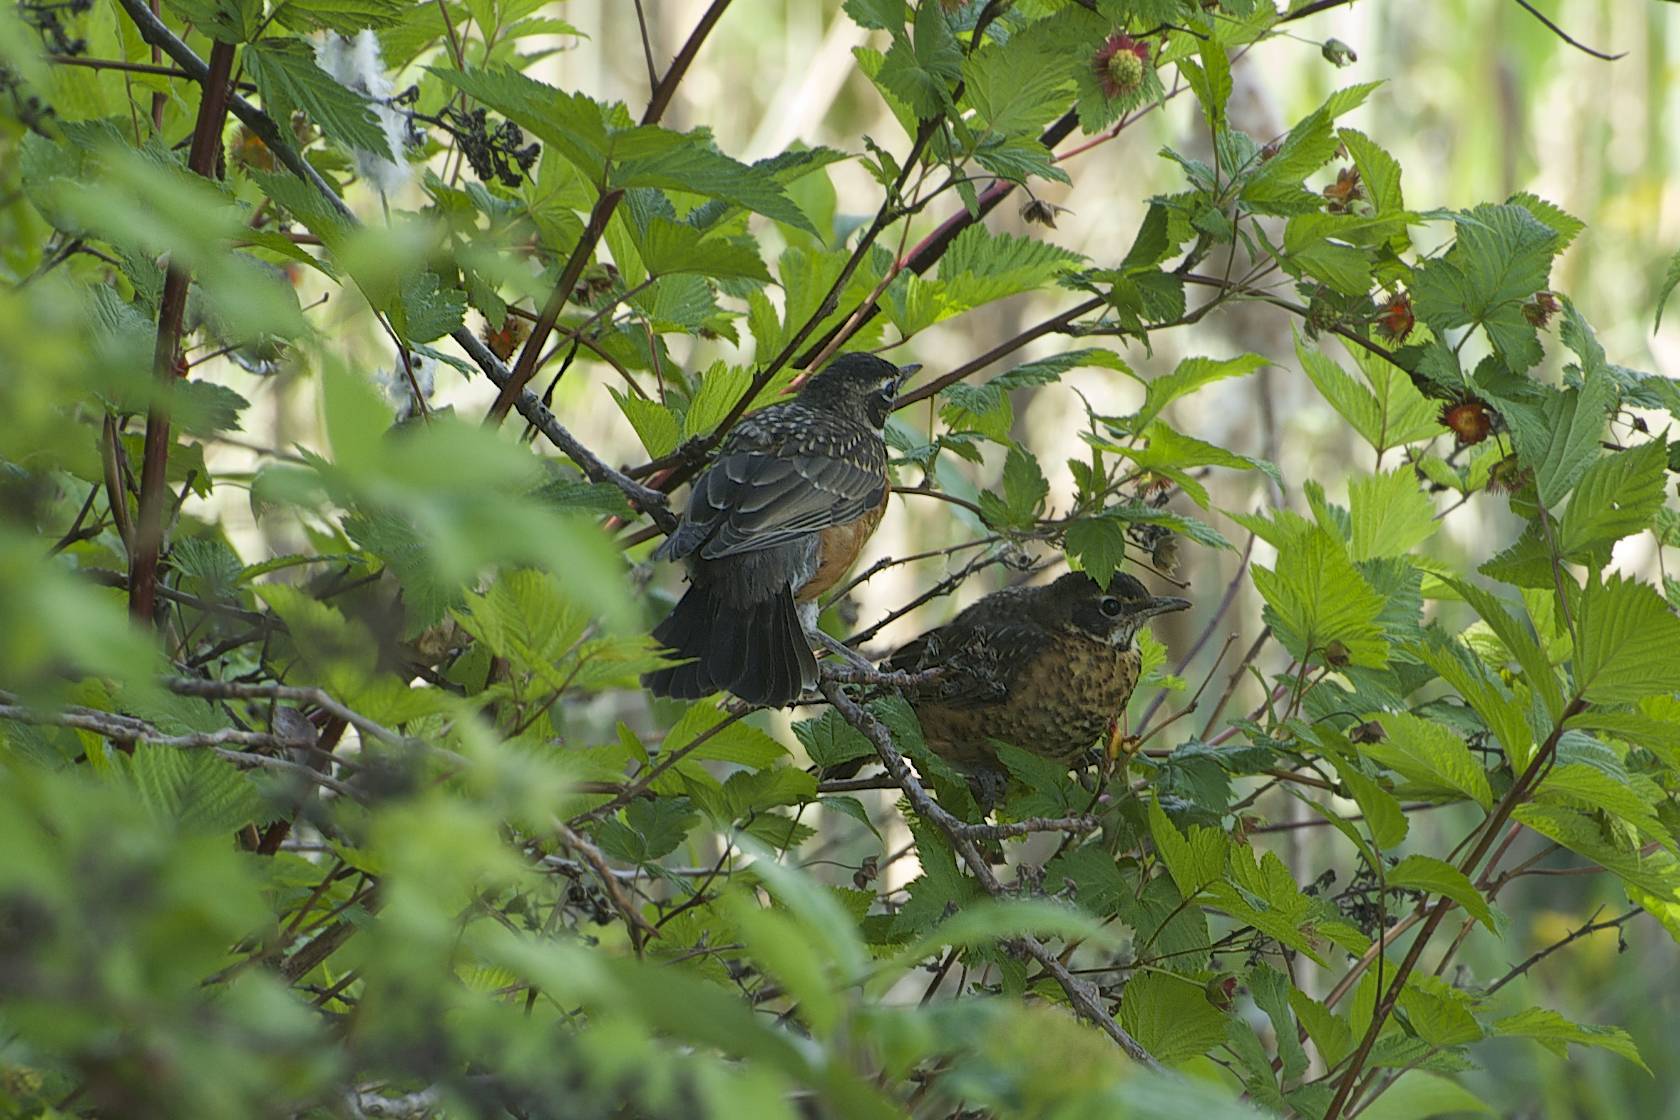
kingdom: Animalia
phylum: Chordata
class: Aves
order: Passeriformes
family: Turdidae
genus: Turdus
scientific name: Turdus migratorius
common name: American robin
